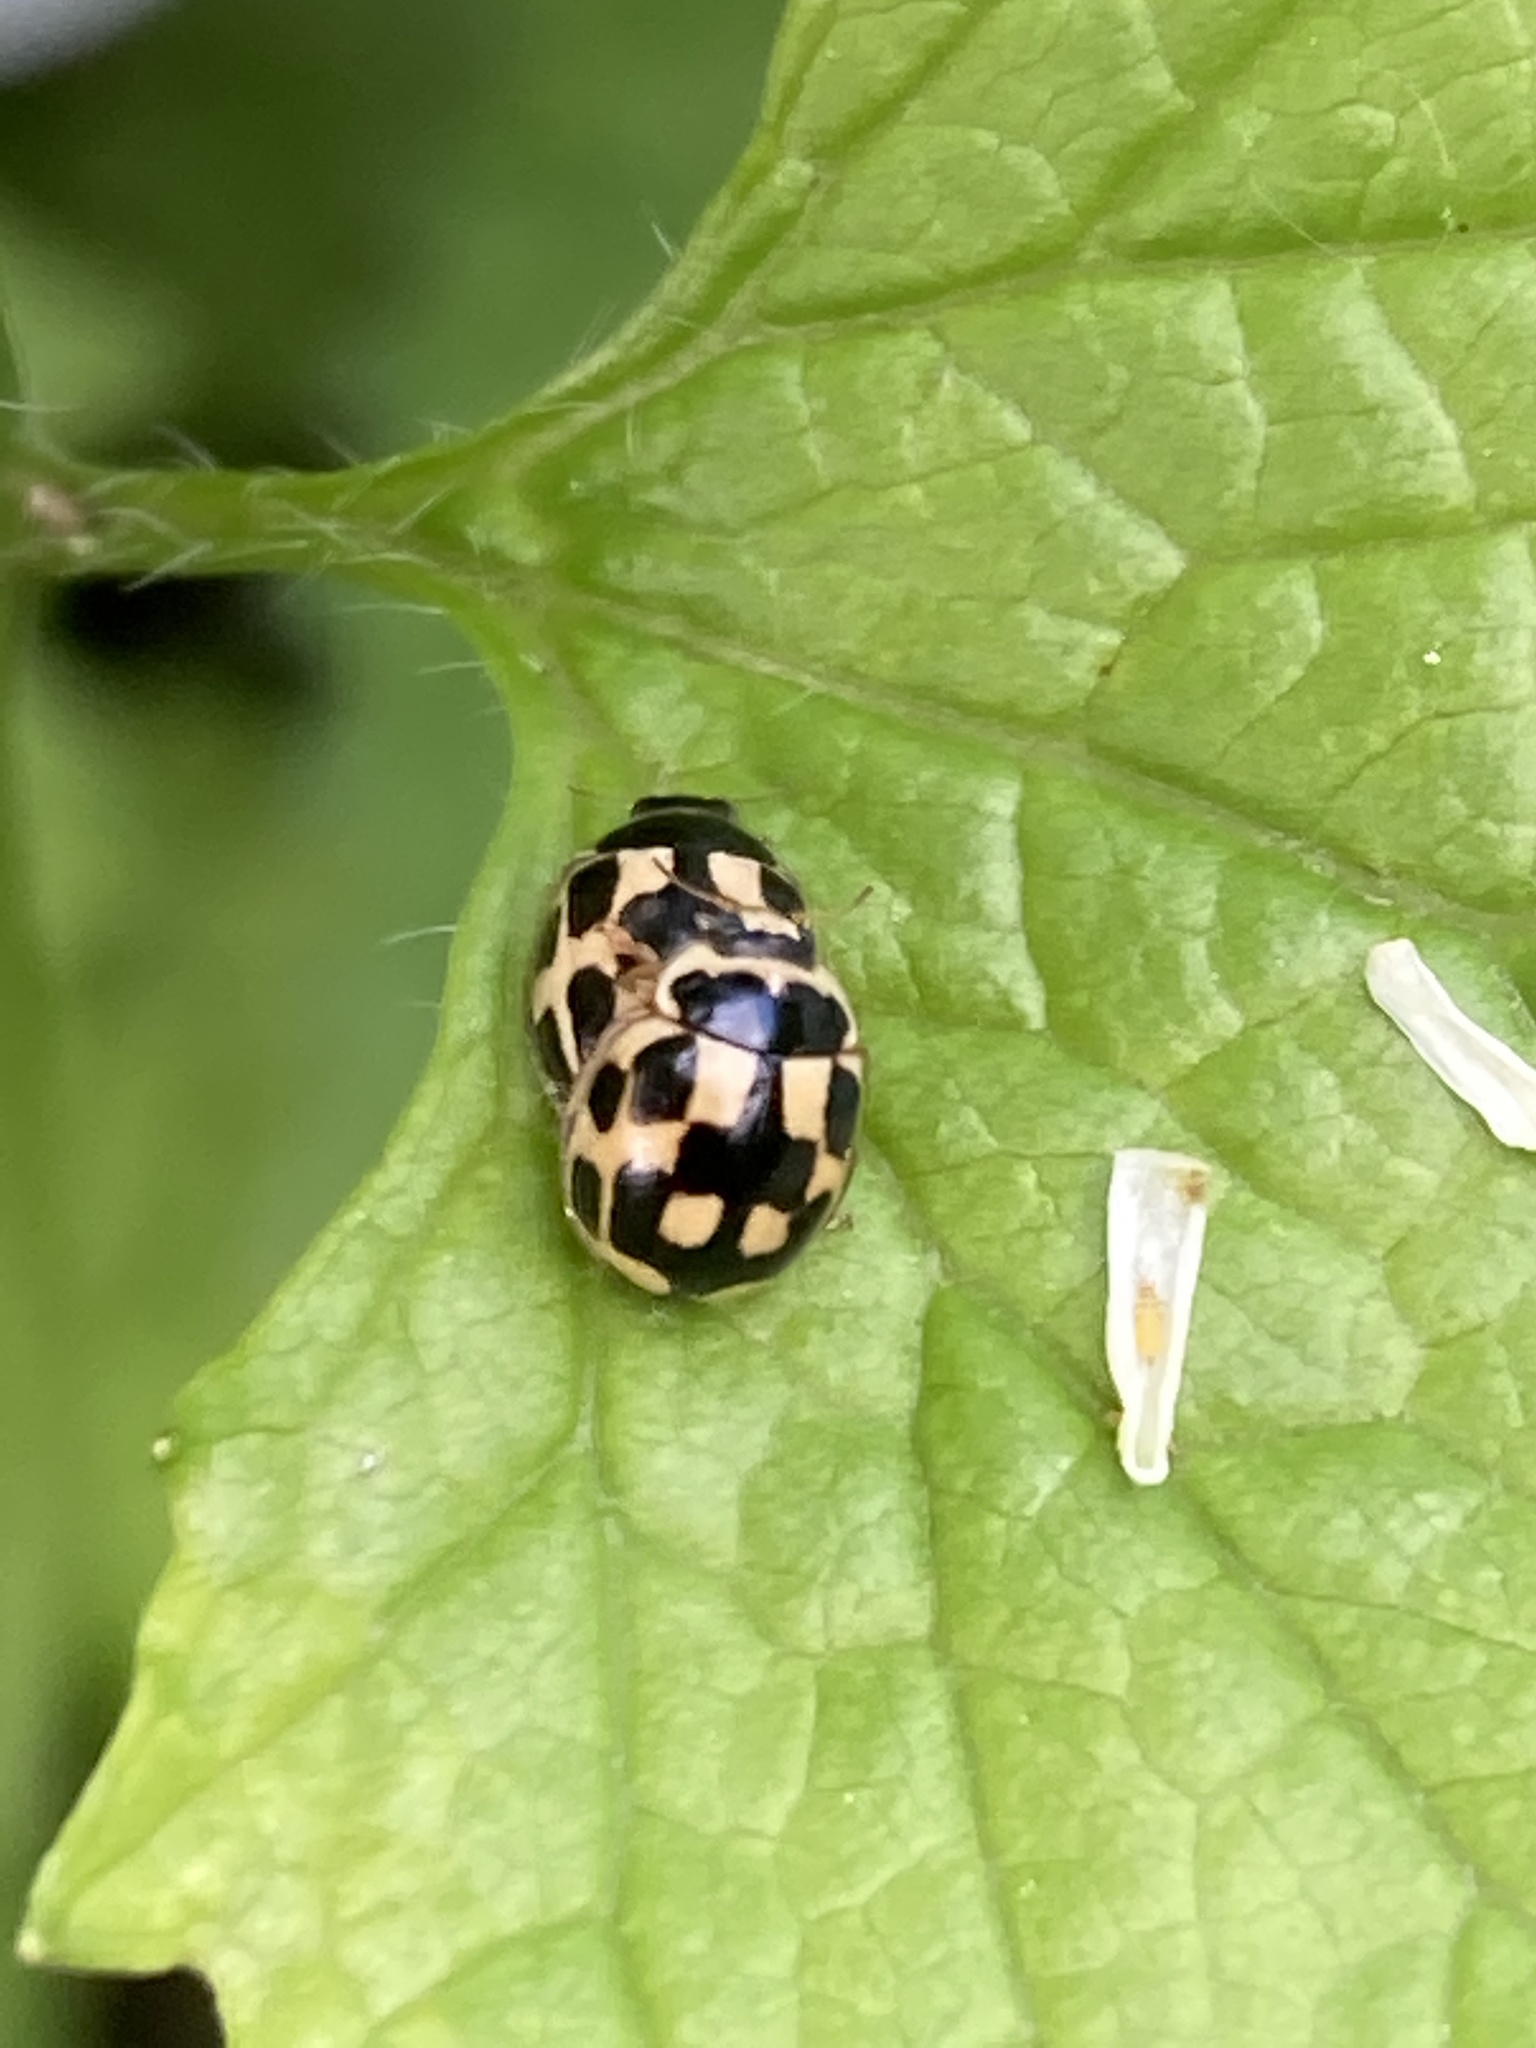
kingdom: Animalia
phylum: Arthropoda
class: Insecta
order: Coleoptera
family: Coccinellidae
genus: Propylaea
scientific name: Propylaea quatuordecimpunctata
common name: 14-spotted ladybird beetle
